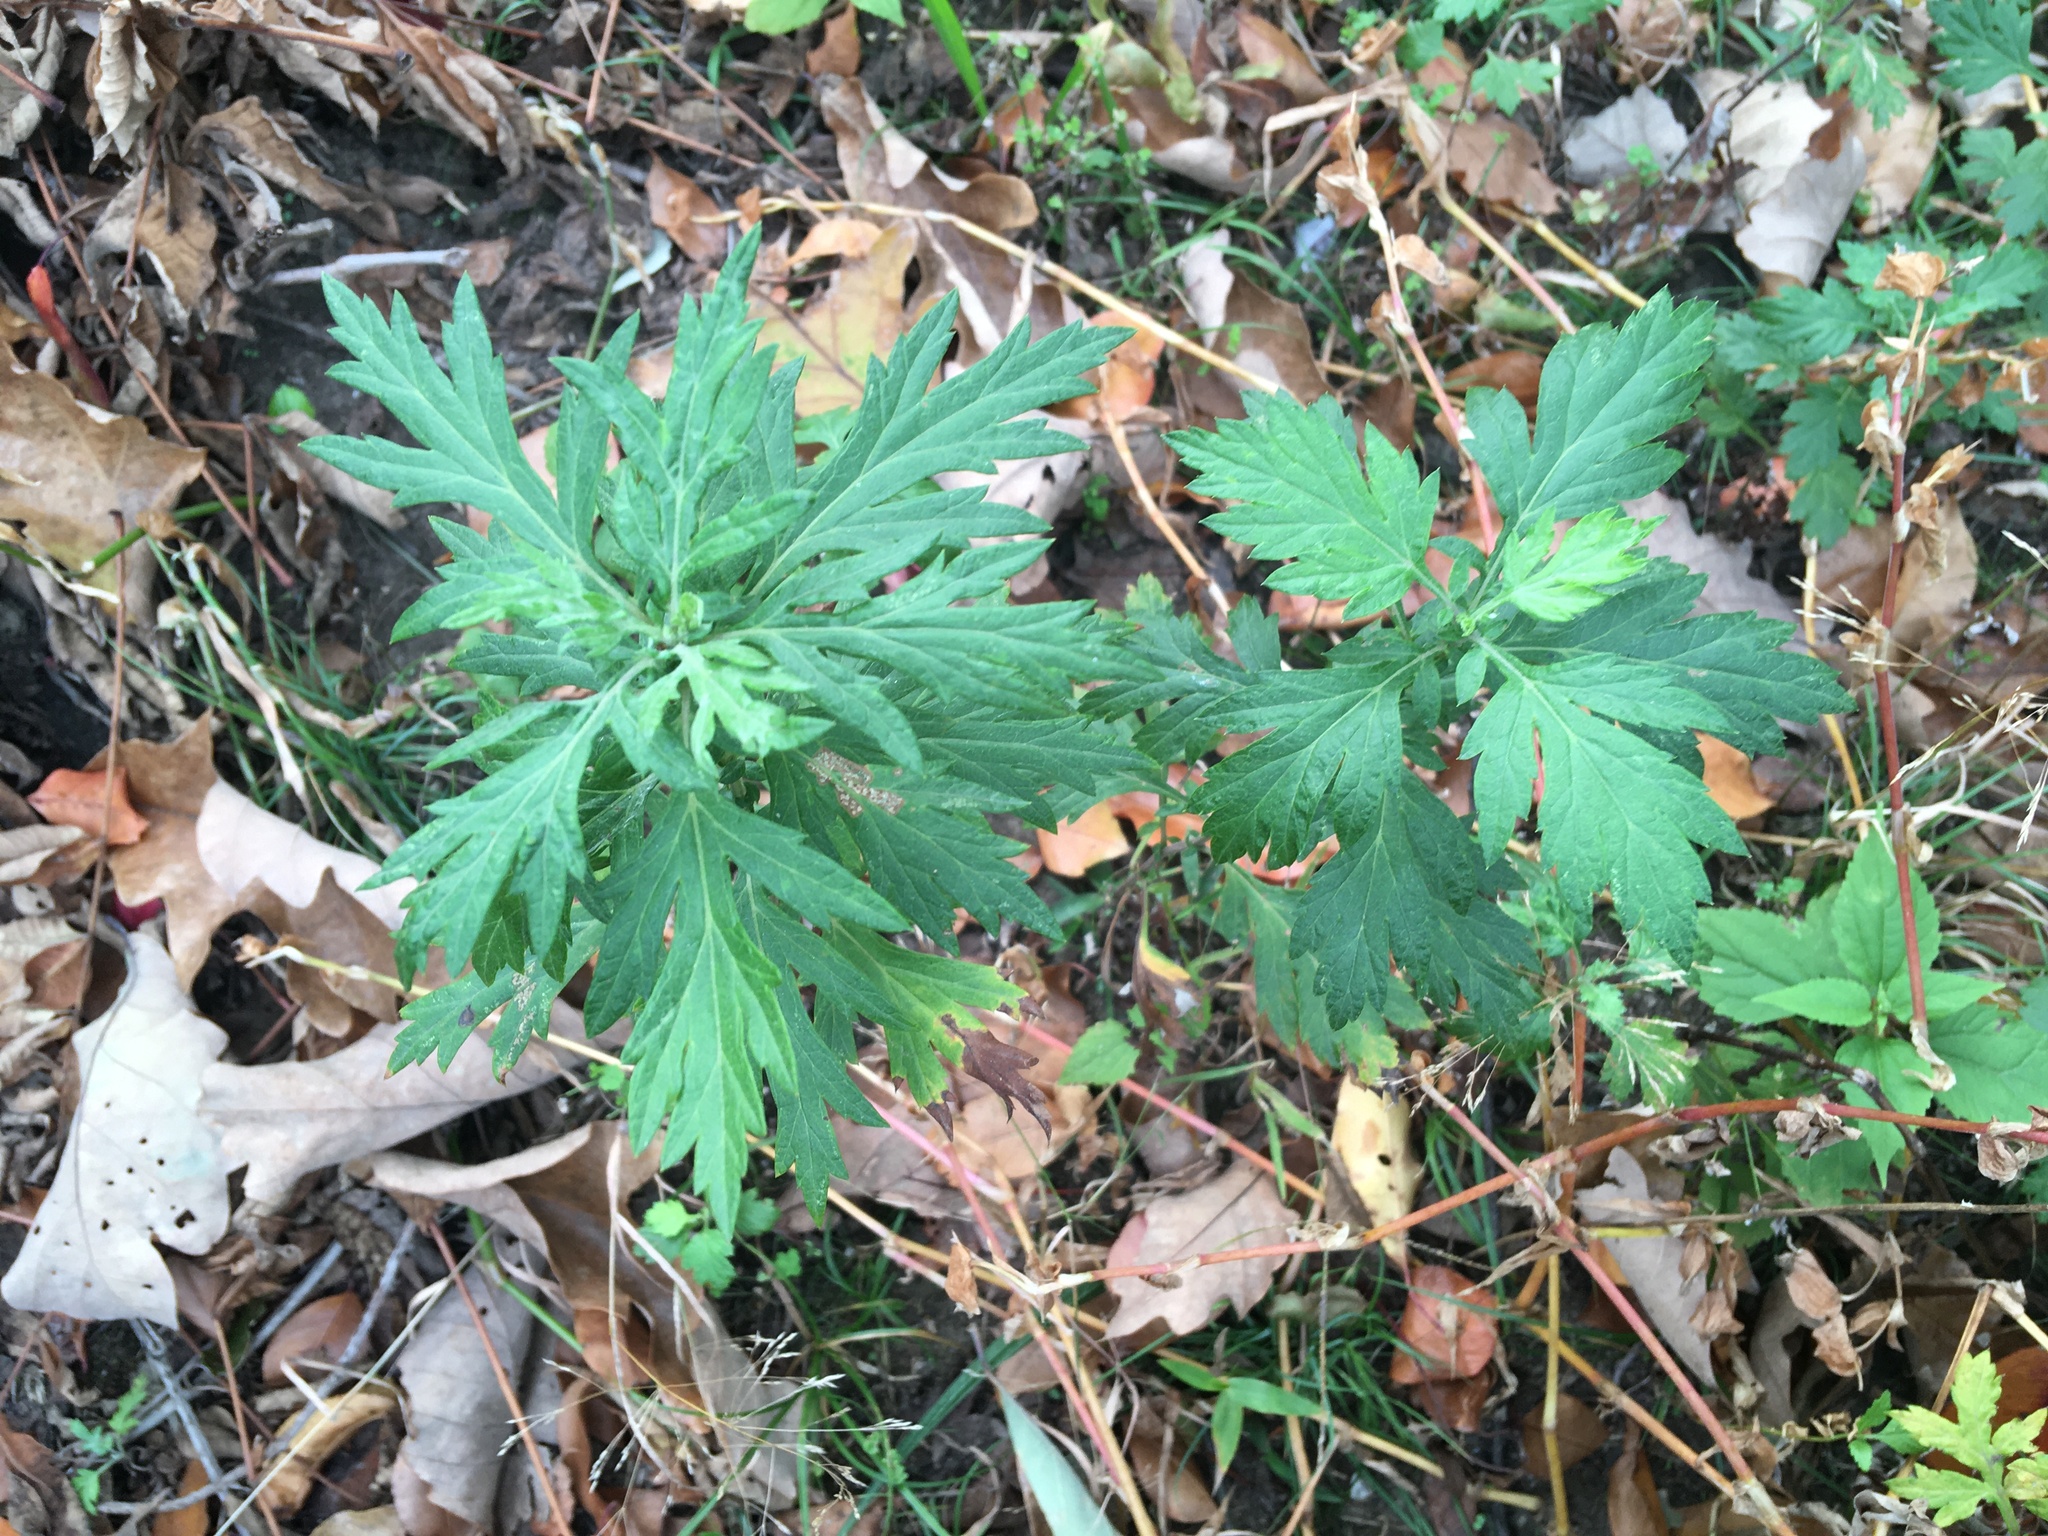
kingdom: Plantae
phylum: Tracheophyta
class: Magnoliopsida
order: Asterales
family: Asteraceae
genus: Artemisia
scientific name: Artemisia vulgaris
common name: Mugwort
